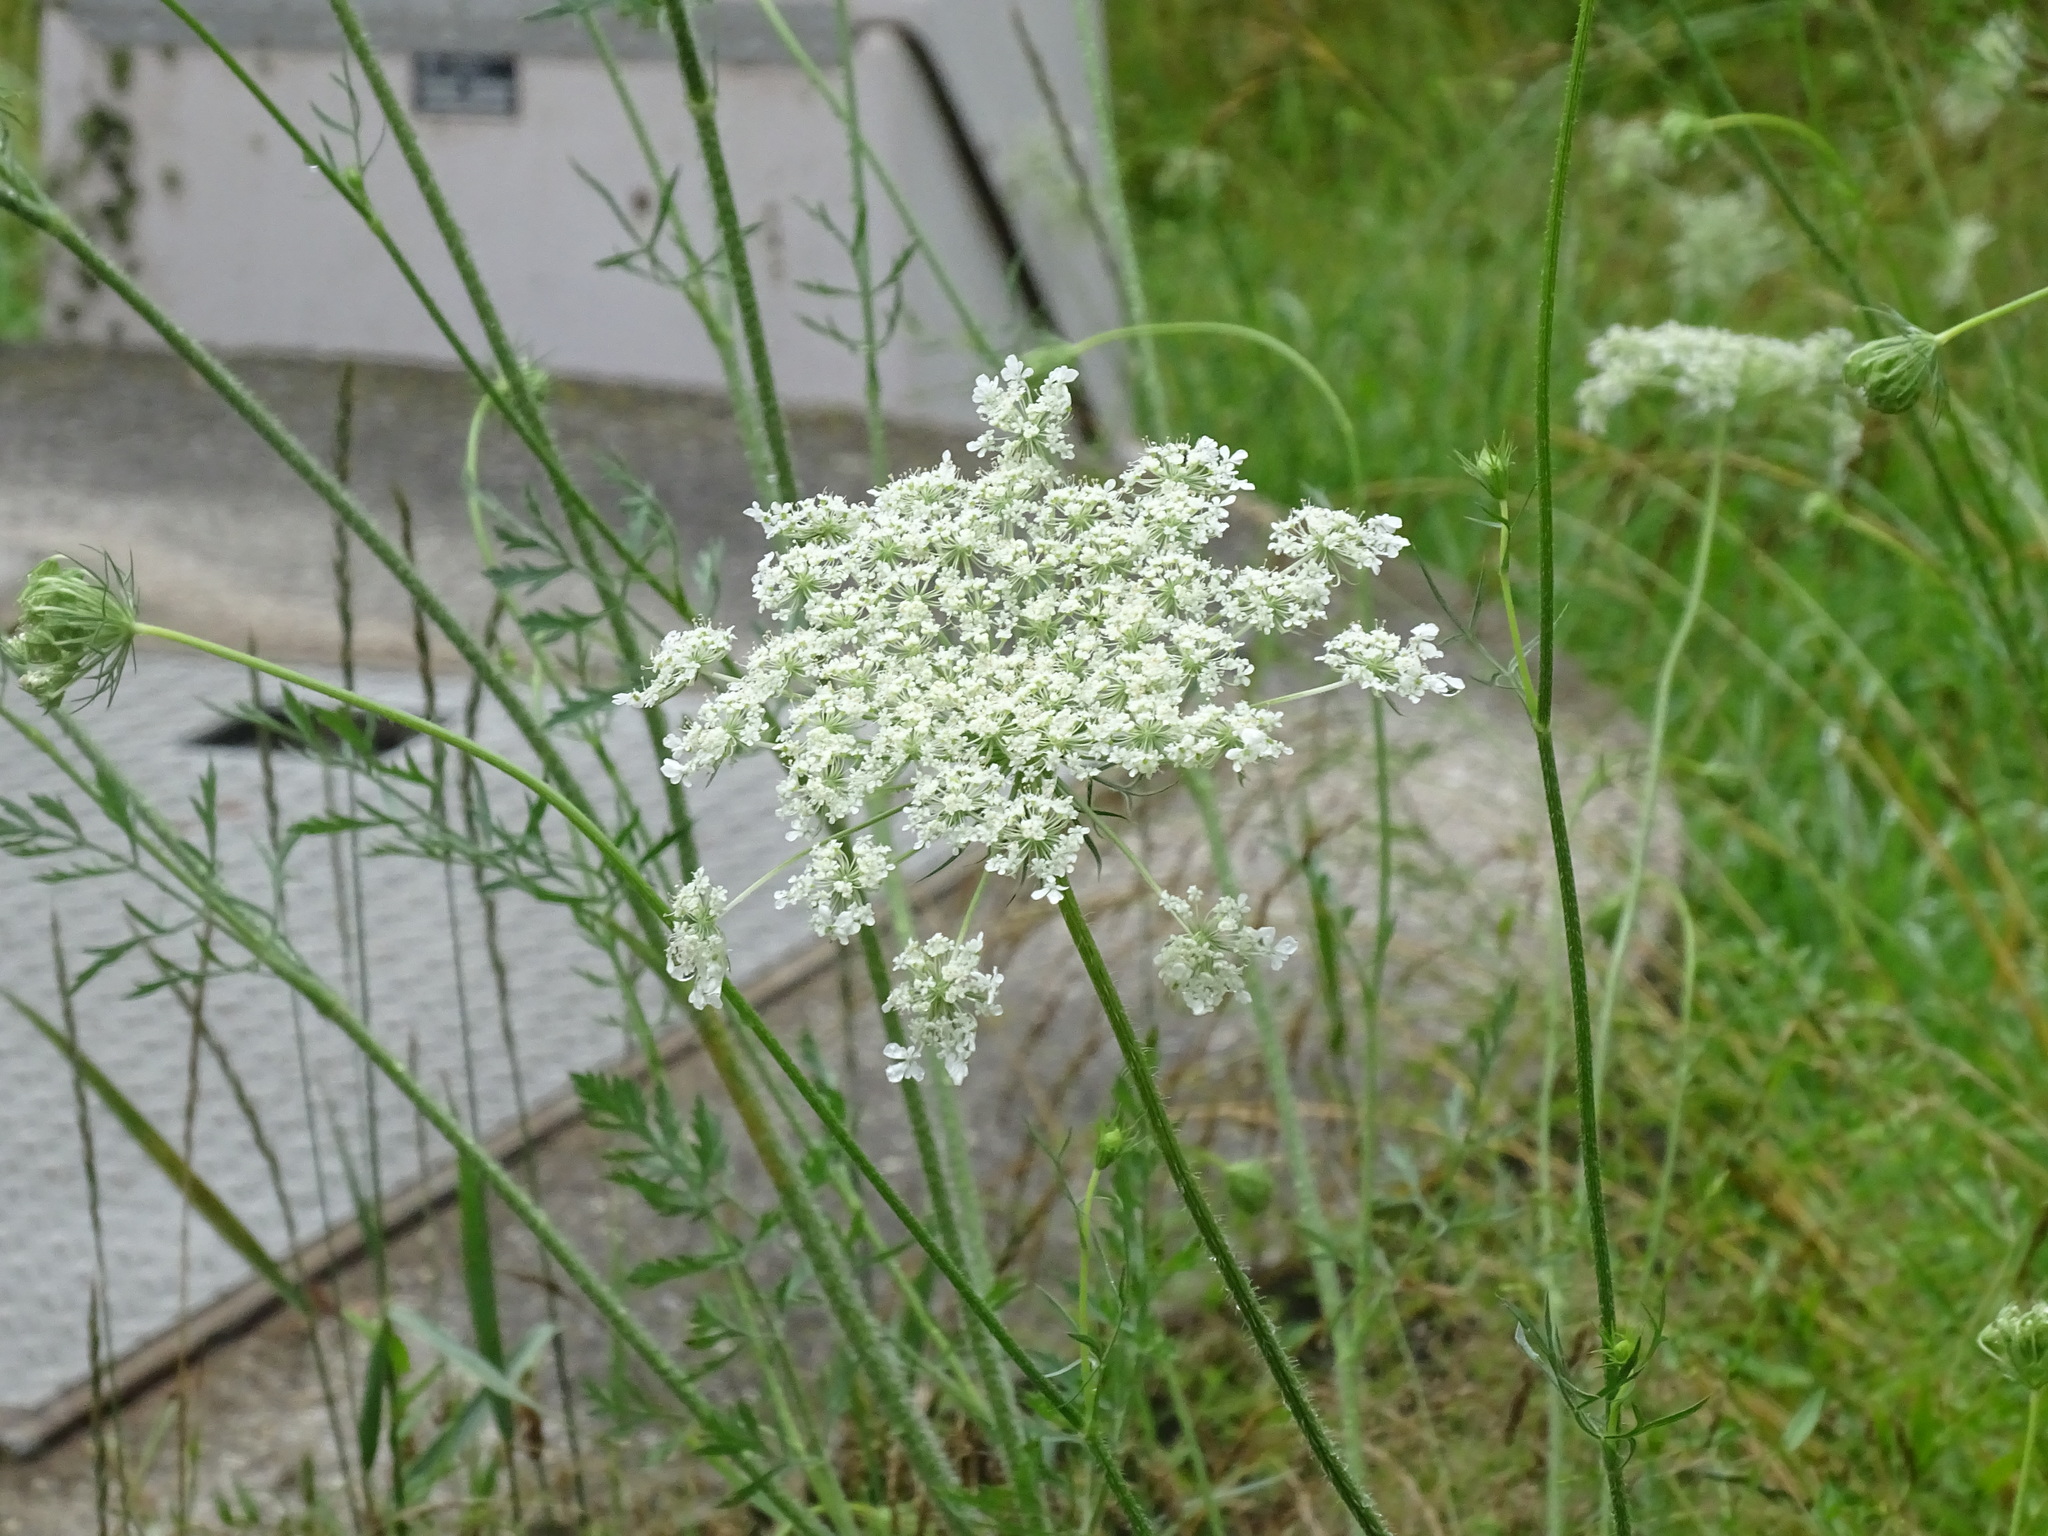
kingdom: Plantae
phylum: Tracheophyta
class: Magnoliopsida
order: Apiales
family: Apiaceae
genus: Daucus
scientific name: Daucus carota
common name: Wild carrot
